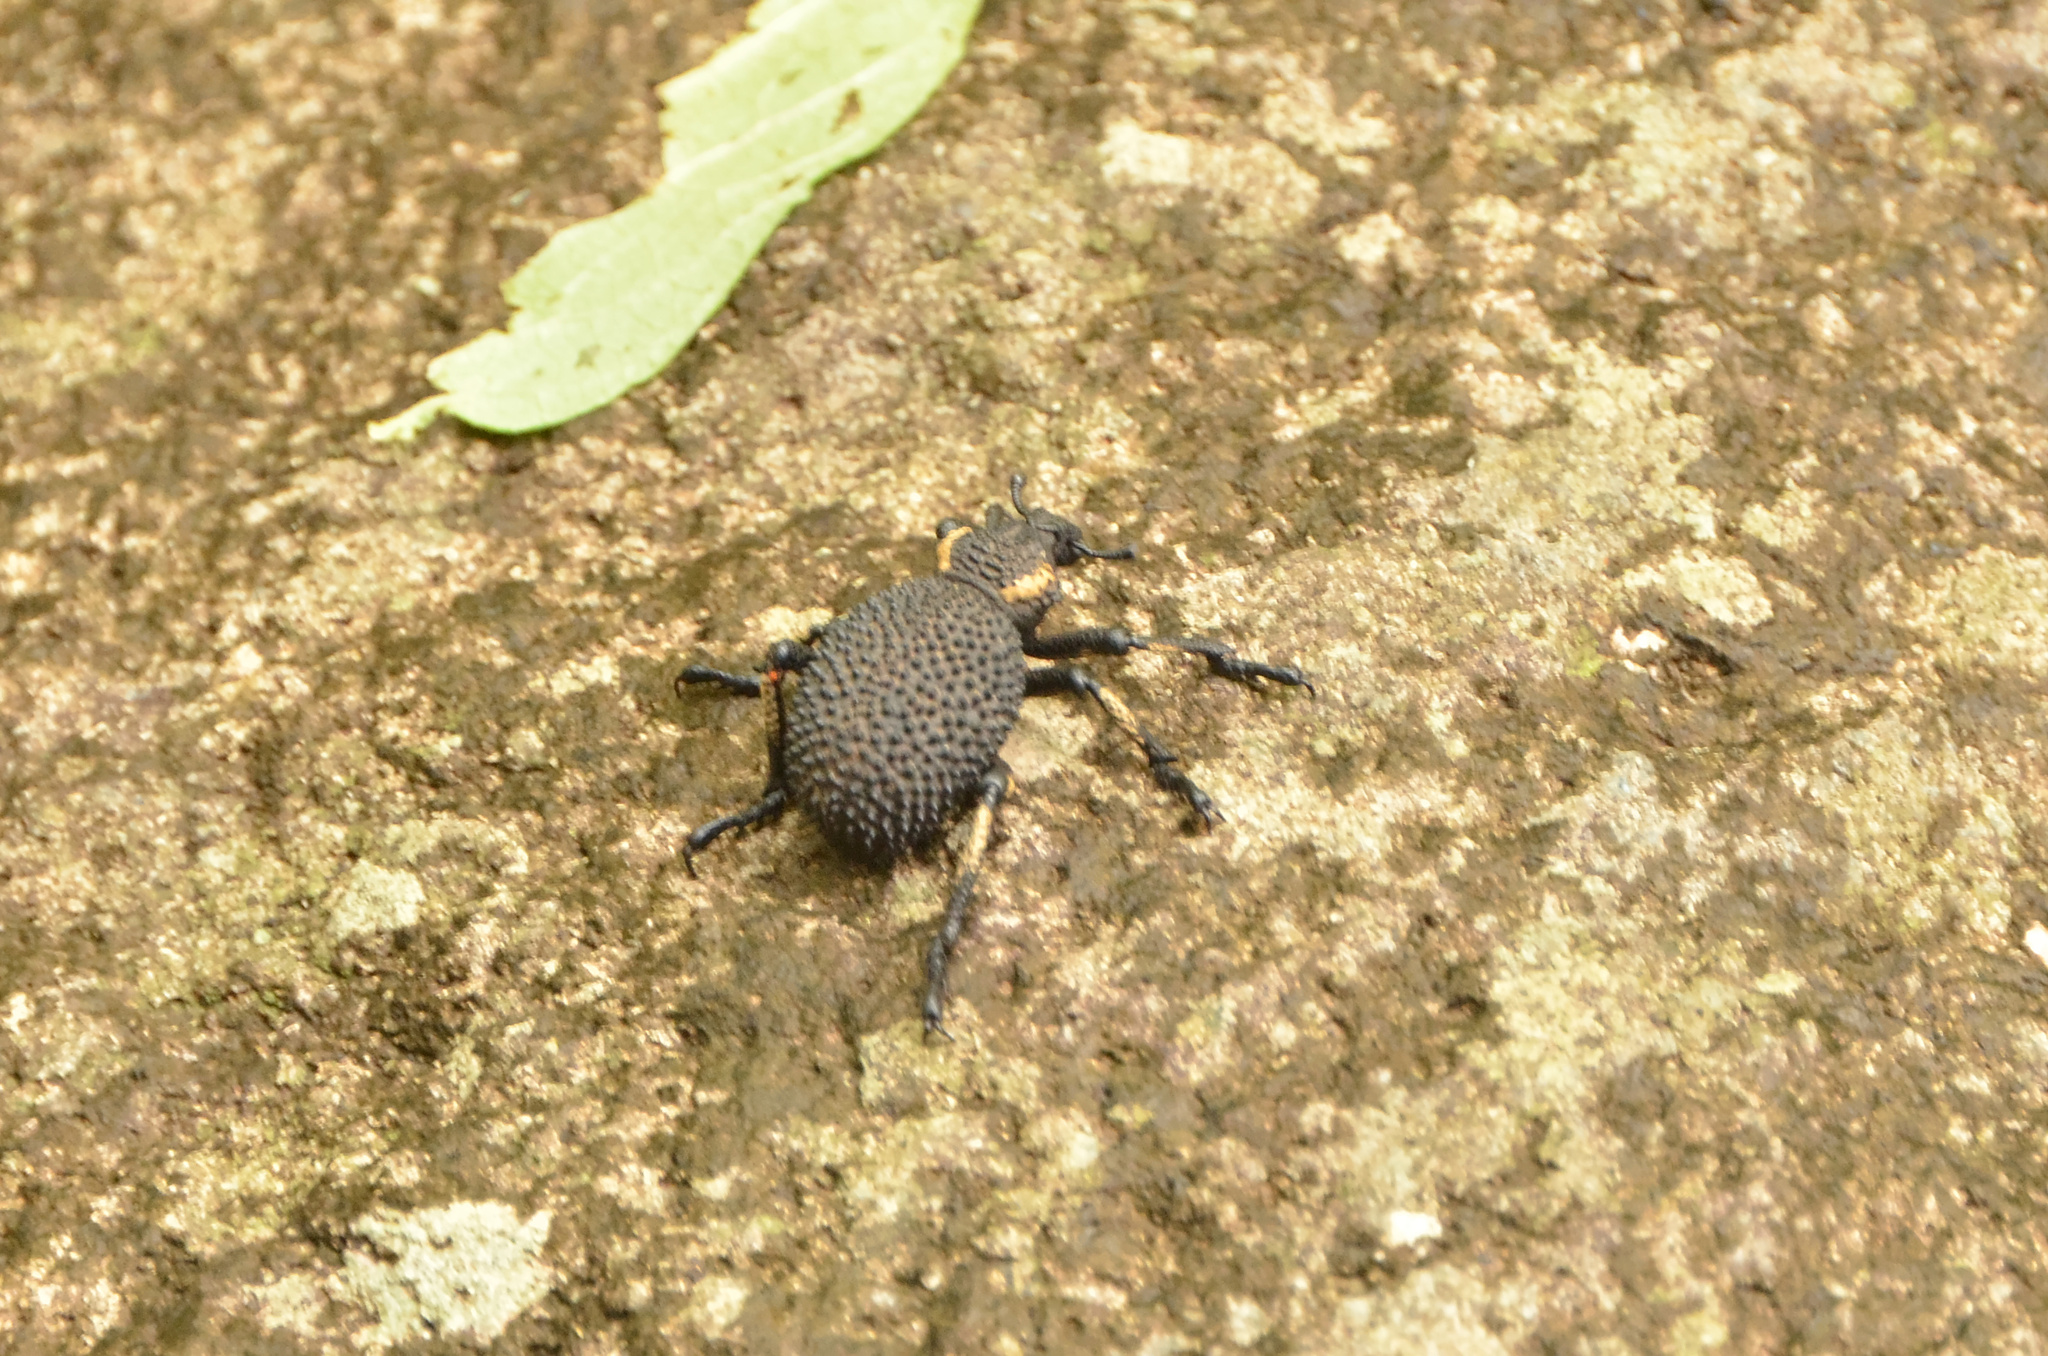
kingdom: Animalia
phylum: Arthropoda
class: Insecta
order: Coleoptera
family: Brachyceridae
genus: Brachycerus
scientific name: Brachycerus congestus
